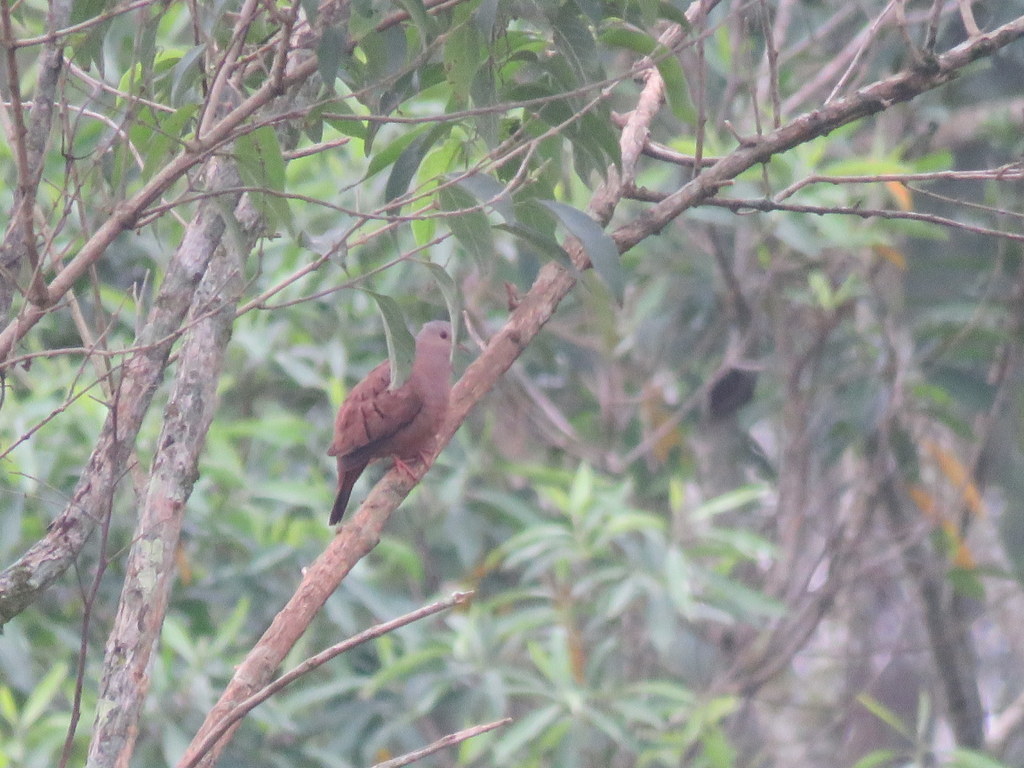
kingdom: Animalia
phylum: Chordata
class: Aves
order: Columbiformes
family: Columbidae
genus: Columbina
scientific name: Columbina talpacoti
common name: Ruddy ground dove
